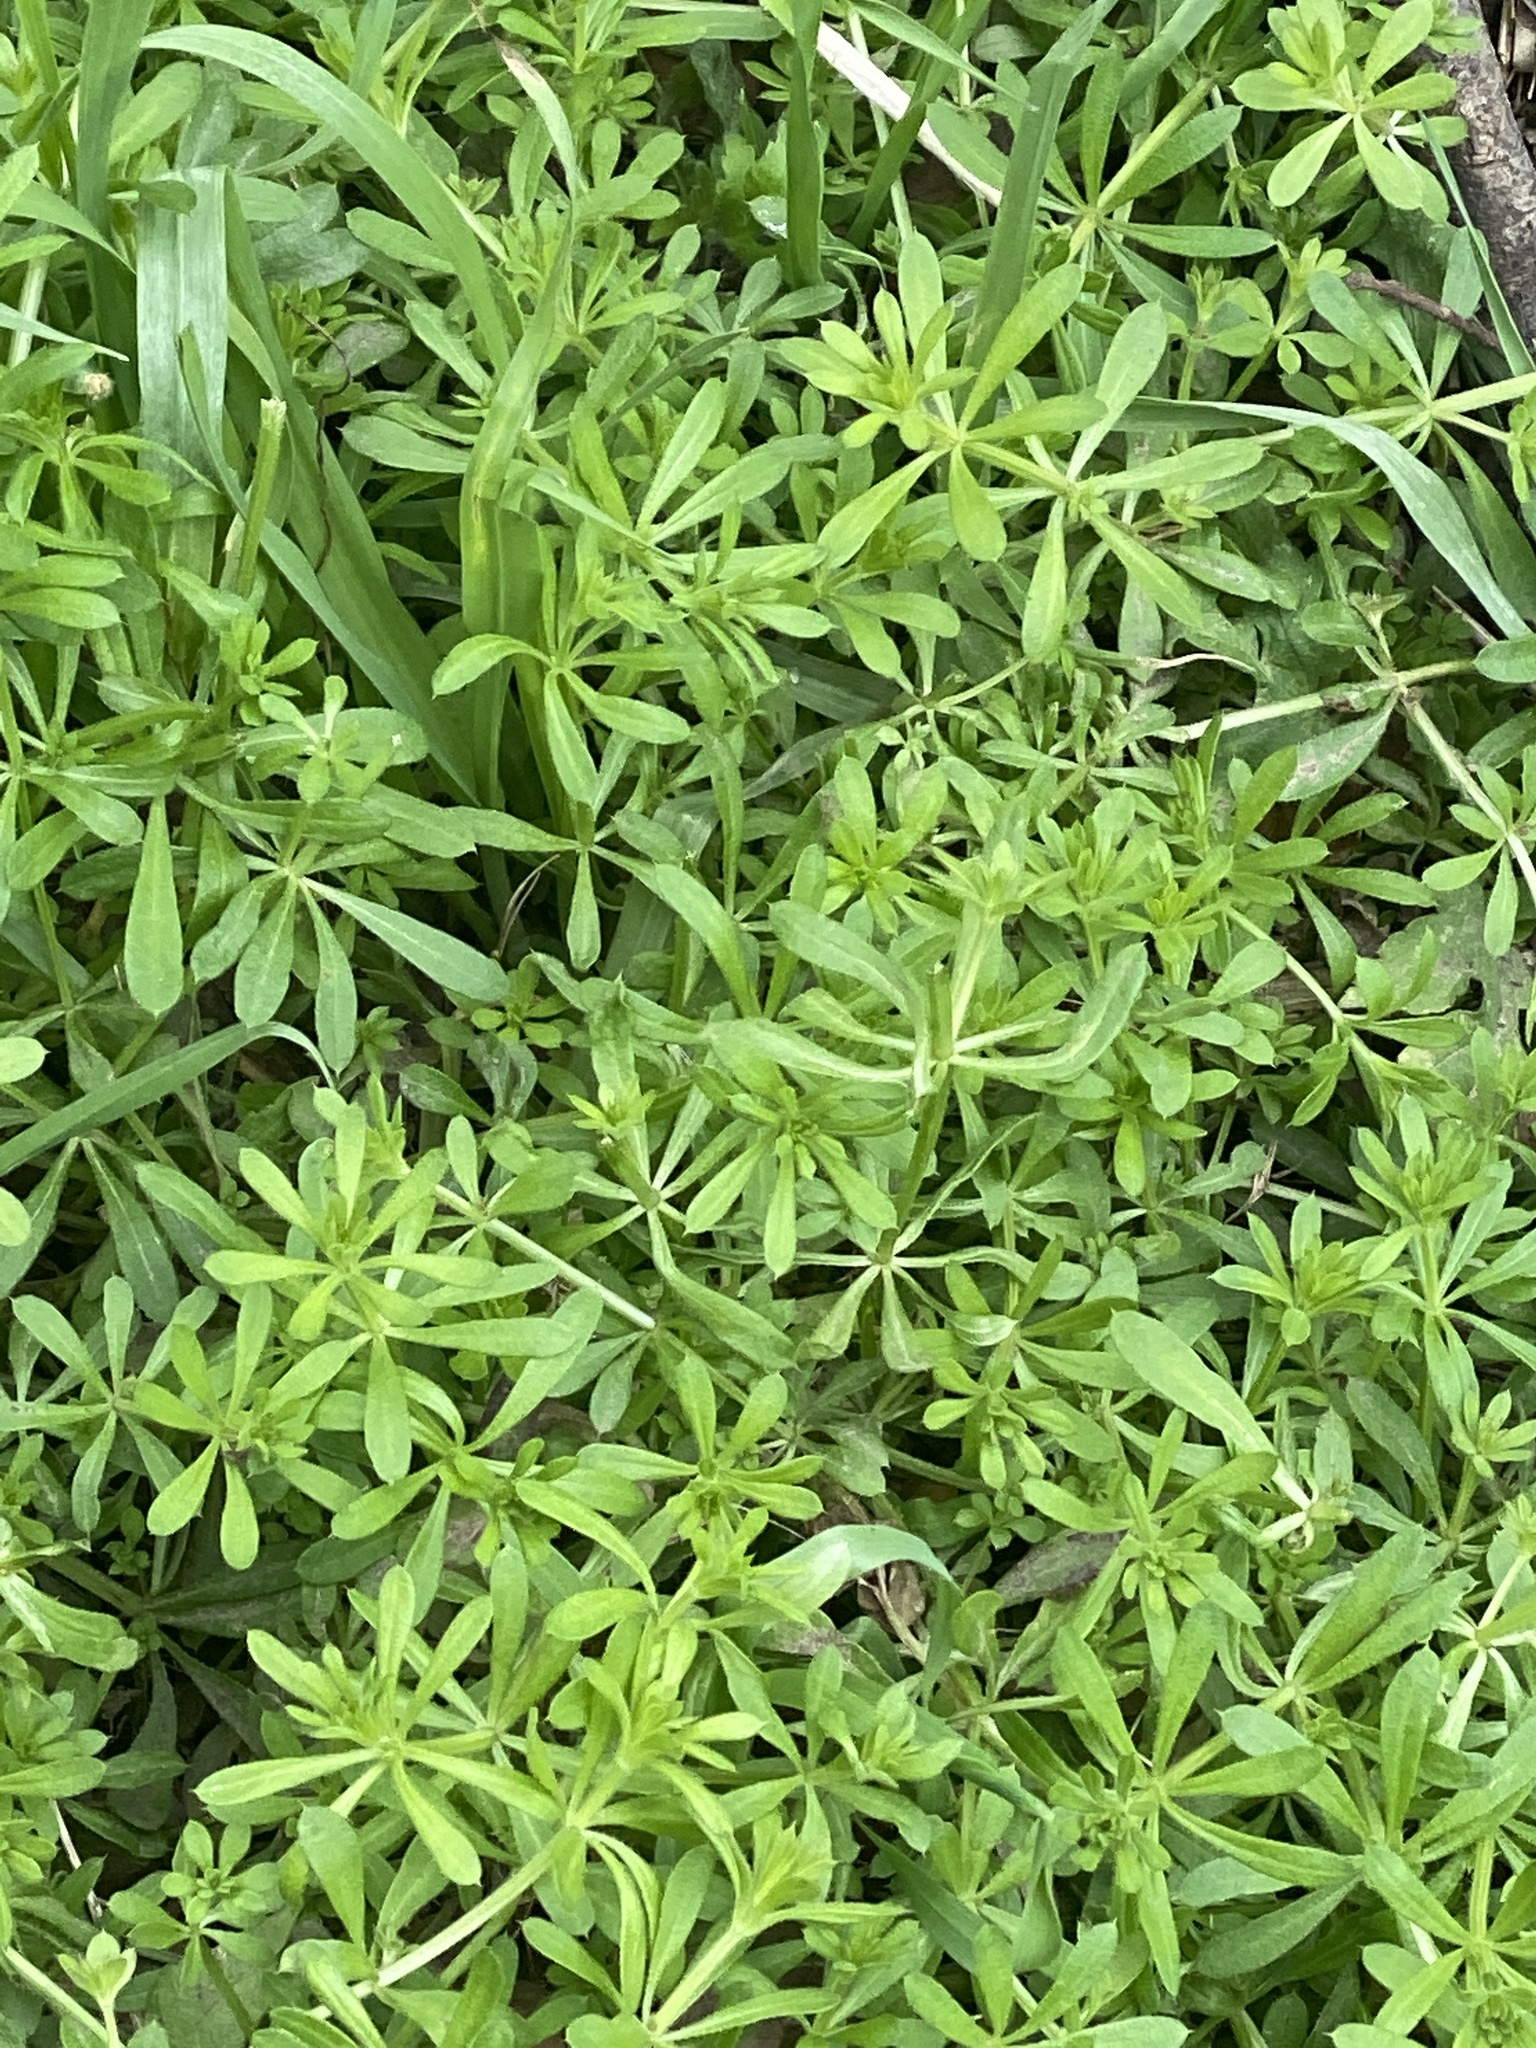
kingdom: Plantae
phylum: Tracheophyta
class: Magnoliopsida
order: Gentianales
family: Rubiaceae
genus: Galium
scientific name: Galium aparine
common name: Cleavers
